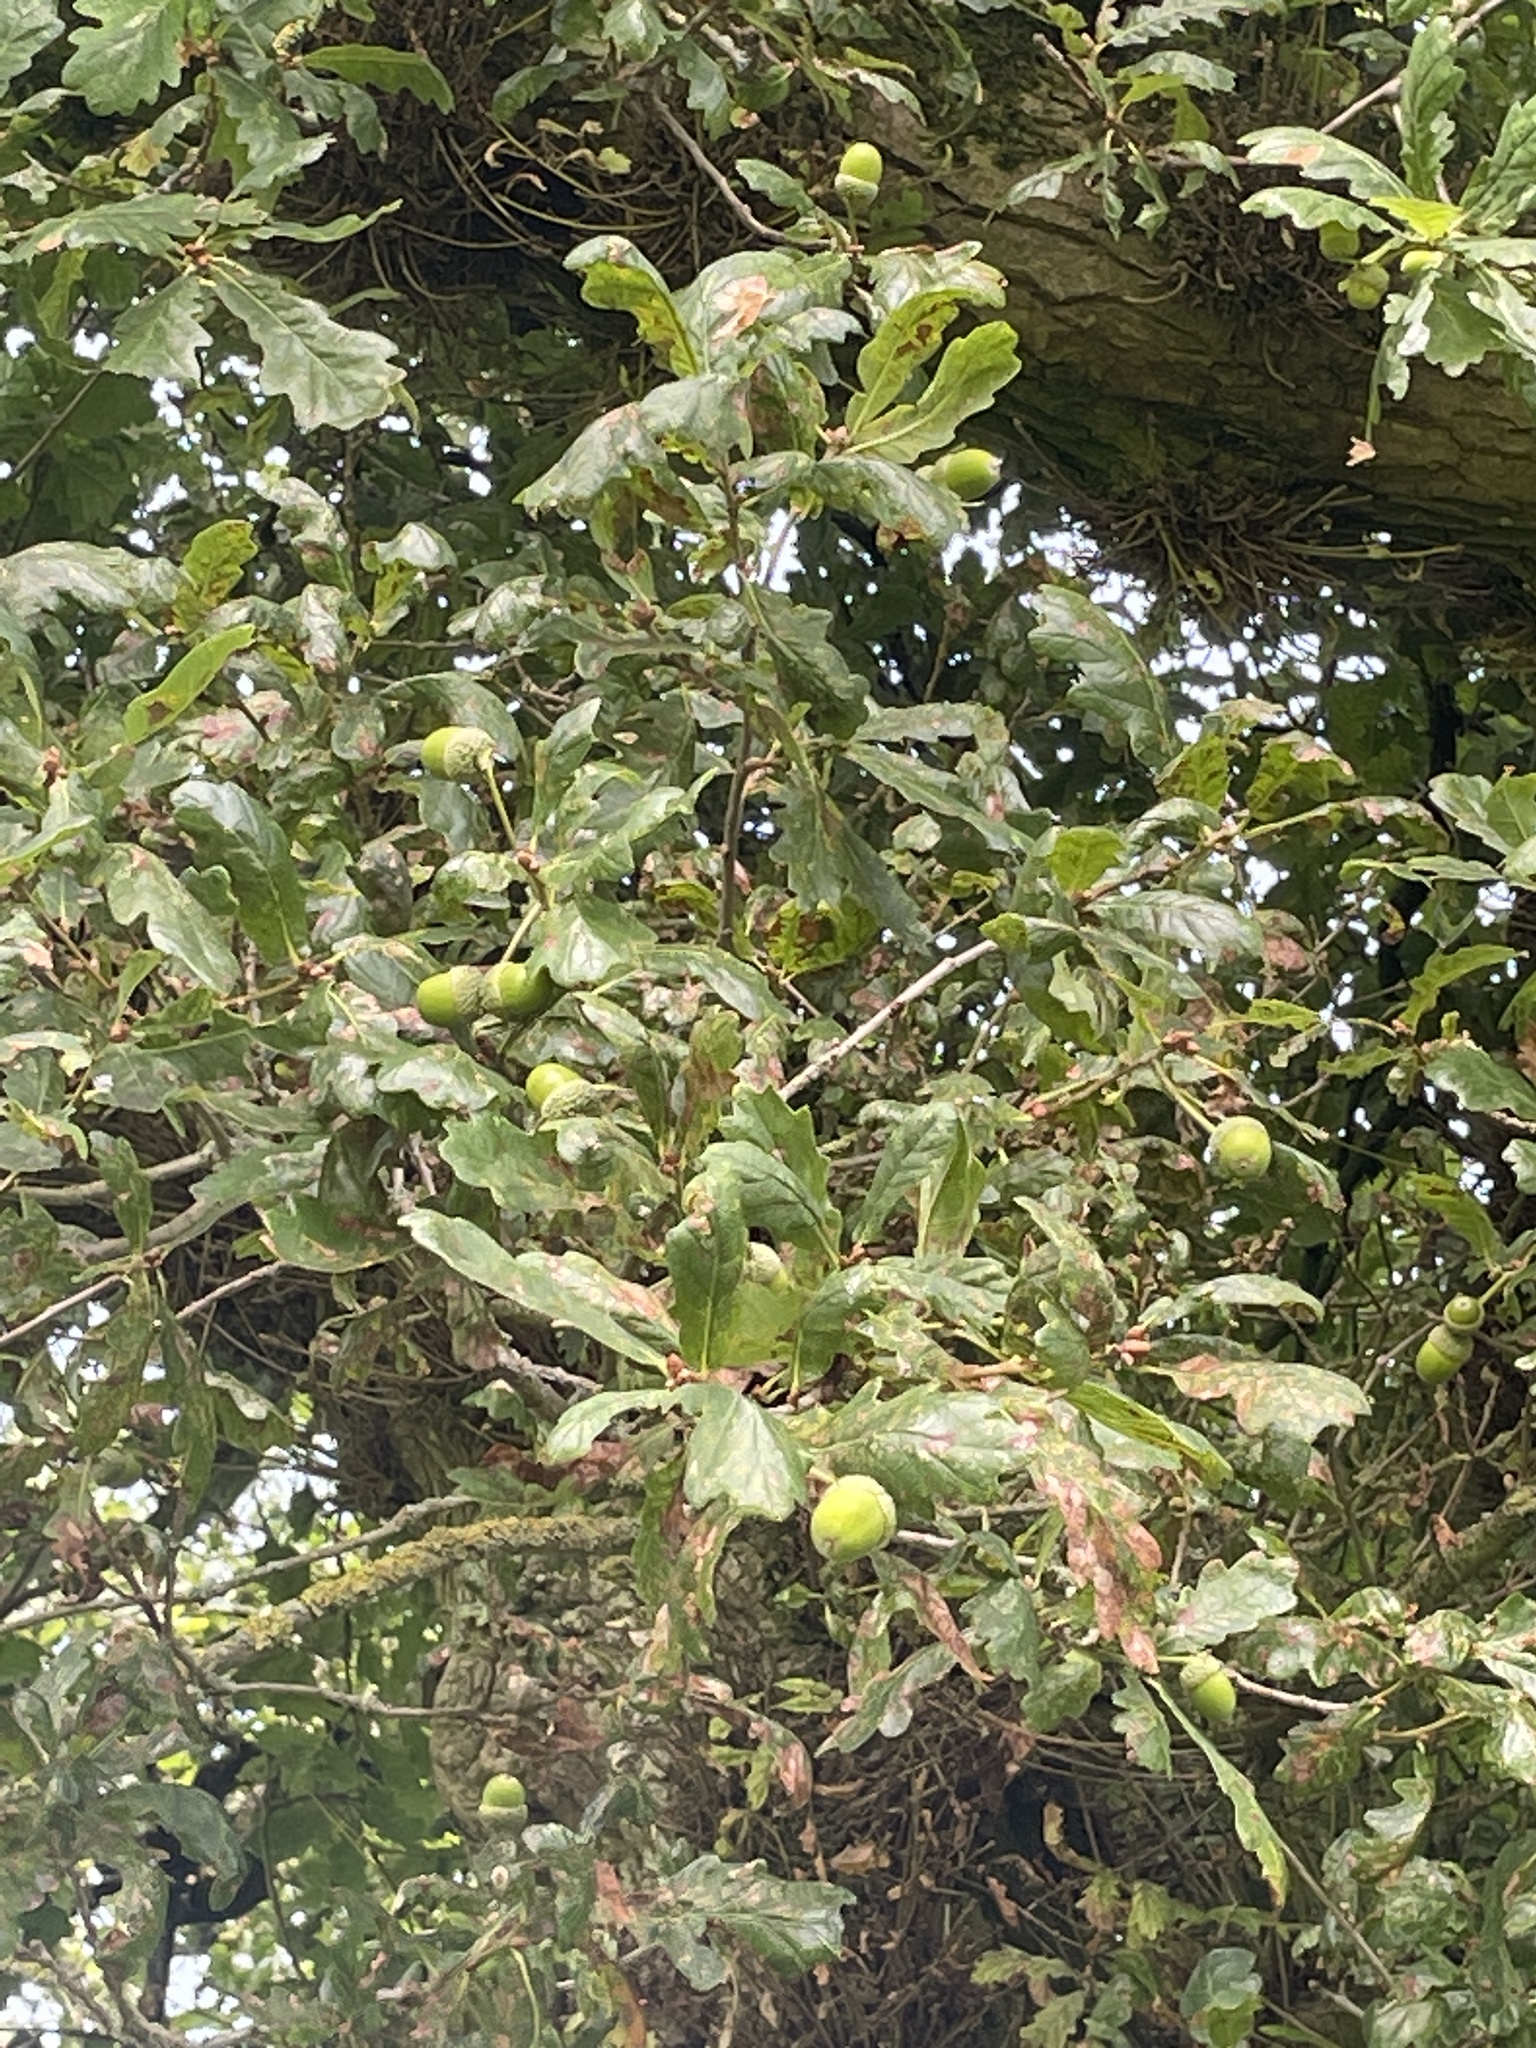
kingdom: Plantae
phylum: Tracheophyta
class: Magnoliopsida
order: Fagales
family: Fagaceae
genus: Quercus
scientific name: Quercus robur
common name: Pedunculate oak
